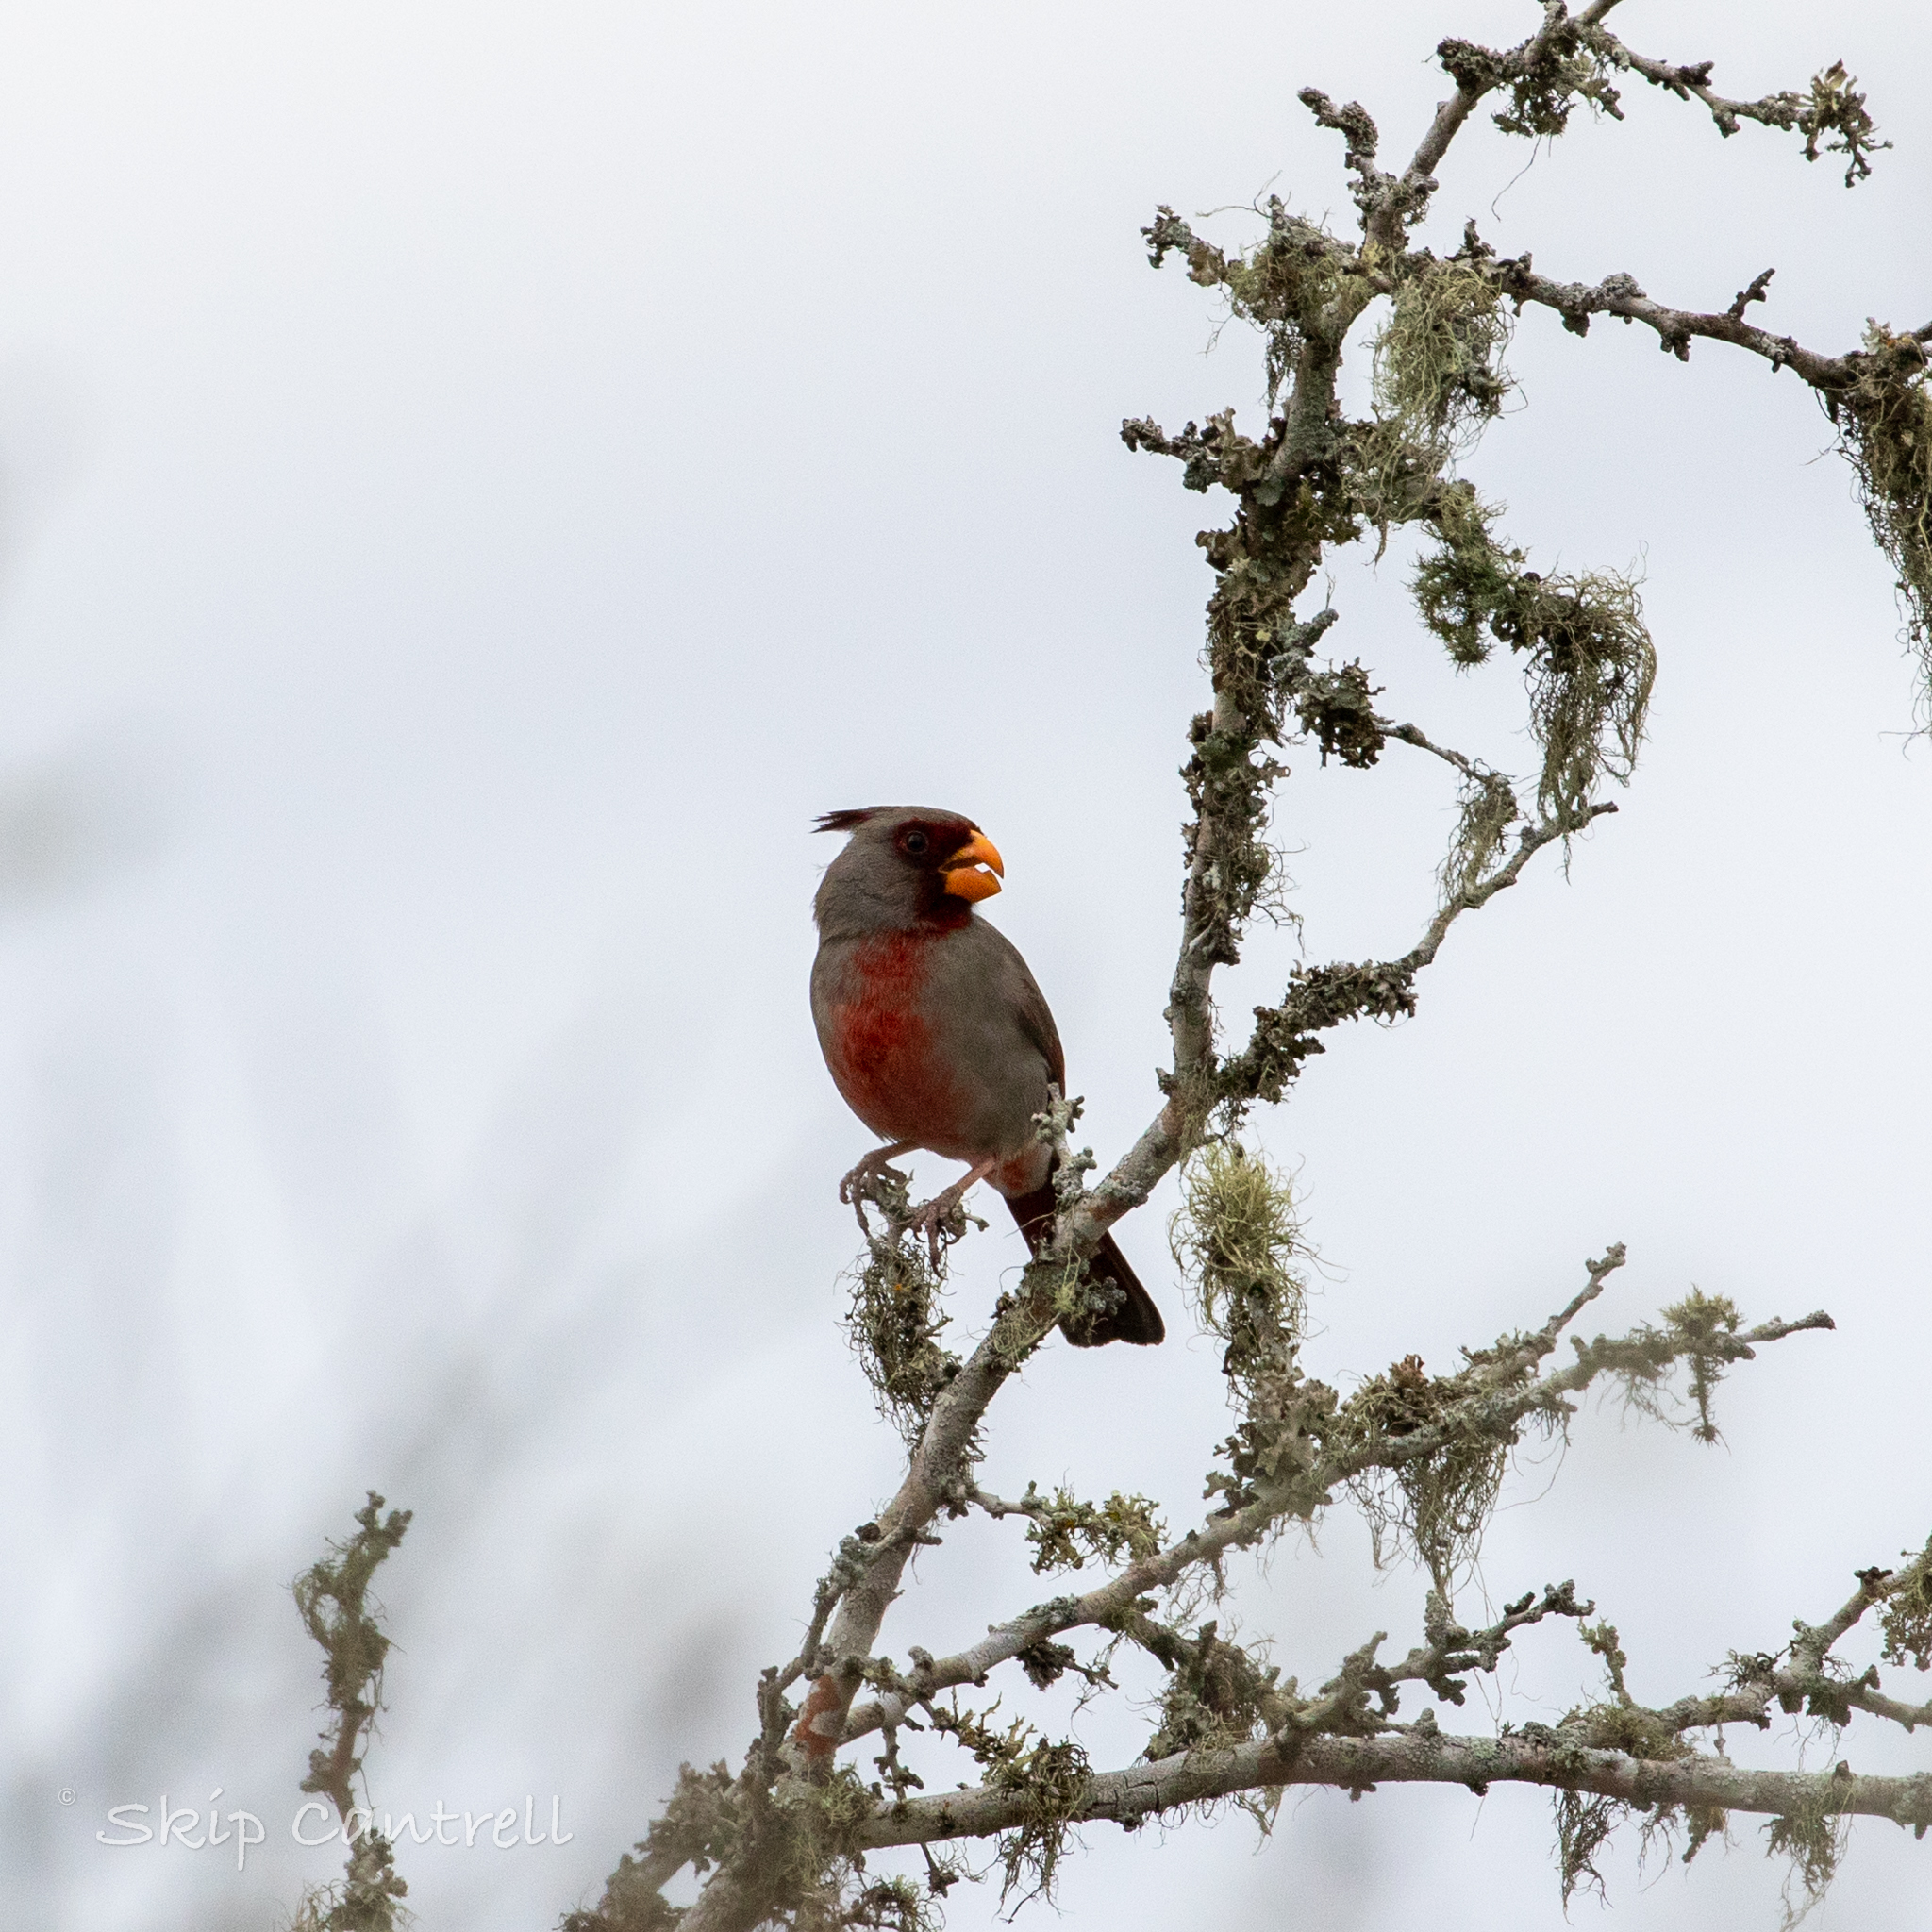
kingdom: Animalia
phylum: Chordata
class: Aves
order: Passeriformes
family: Cardinalidae
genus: Cardinalis
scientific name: Cardinalis sinuatus
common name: Pyrrhuloxia
